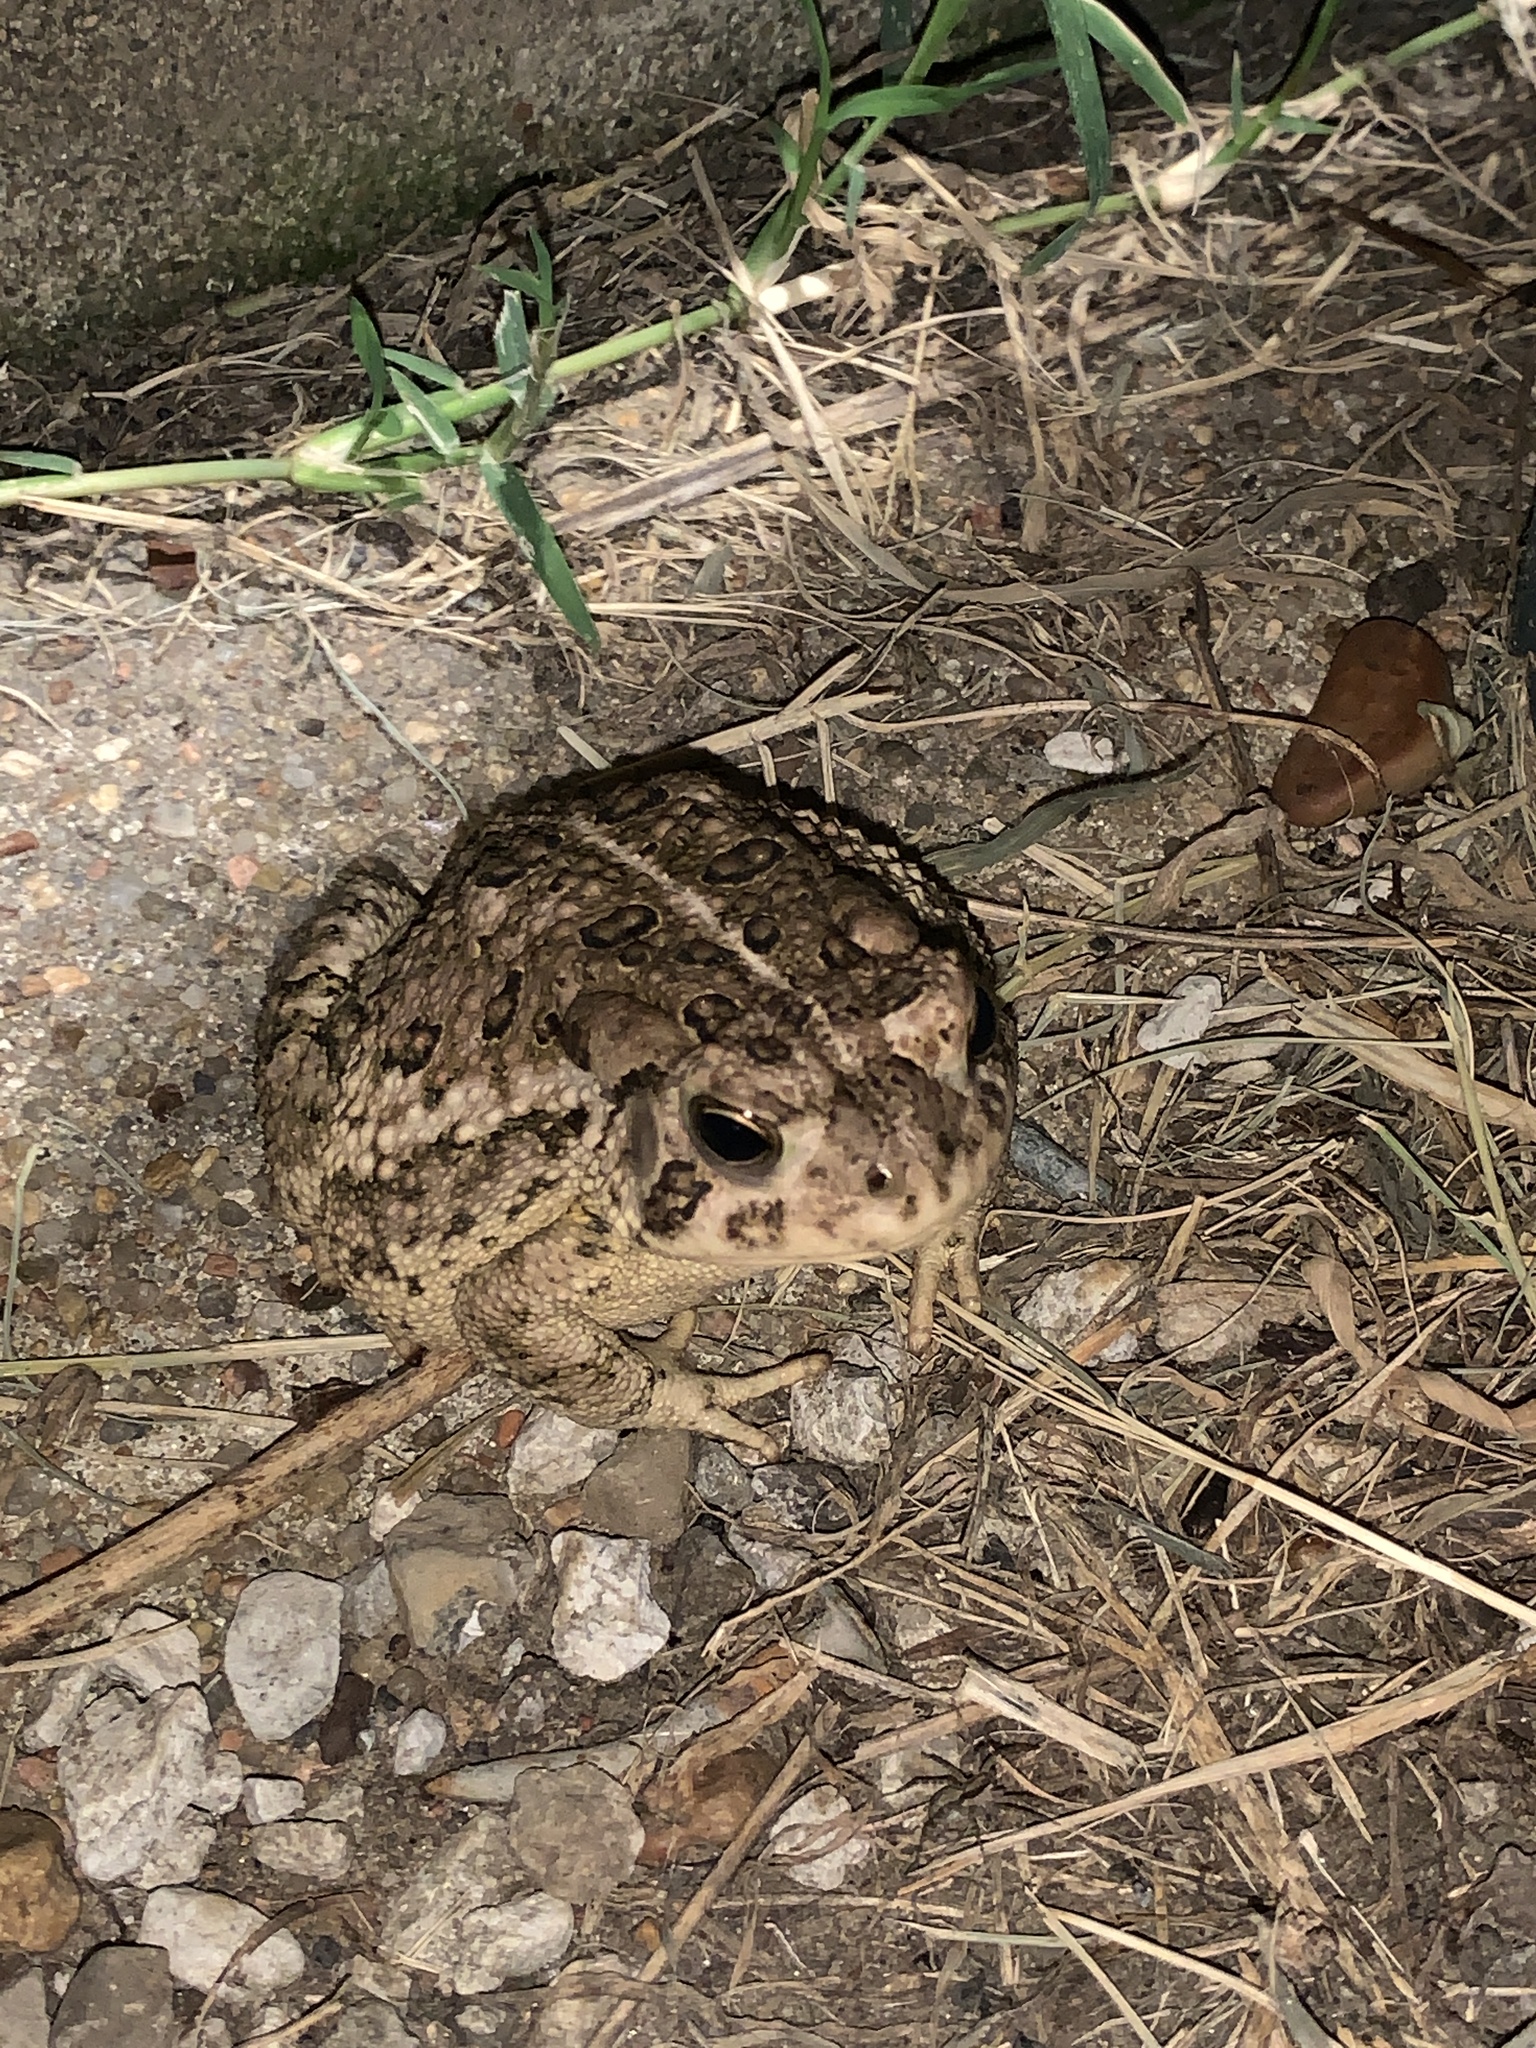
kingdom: Animalia
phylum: Chordata
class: Amphibia
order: Anura
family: Bufonidae
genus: Anaxyrus
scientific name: Anaxyrus woodhousii
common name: Woodhouse's toad
